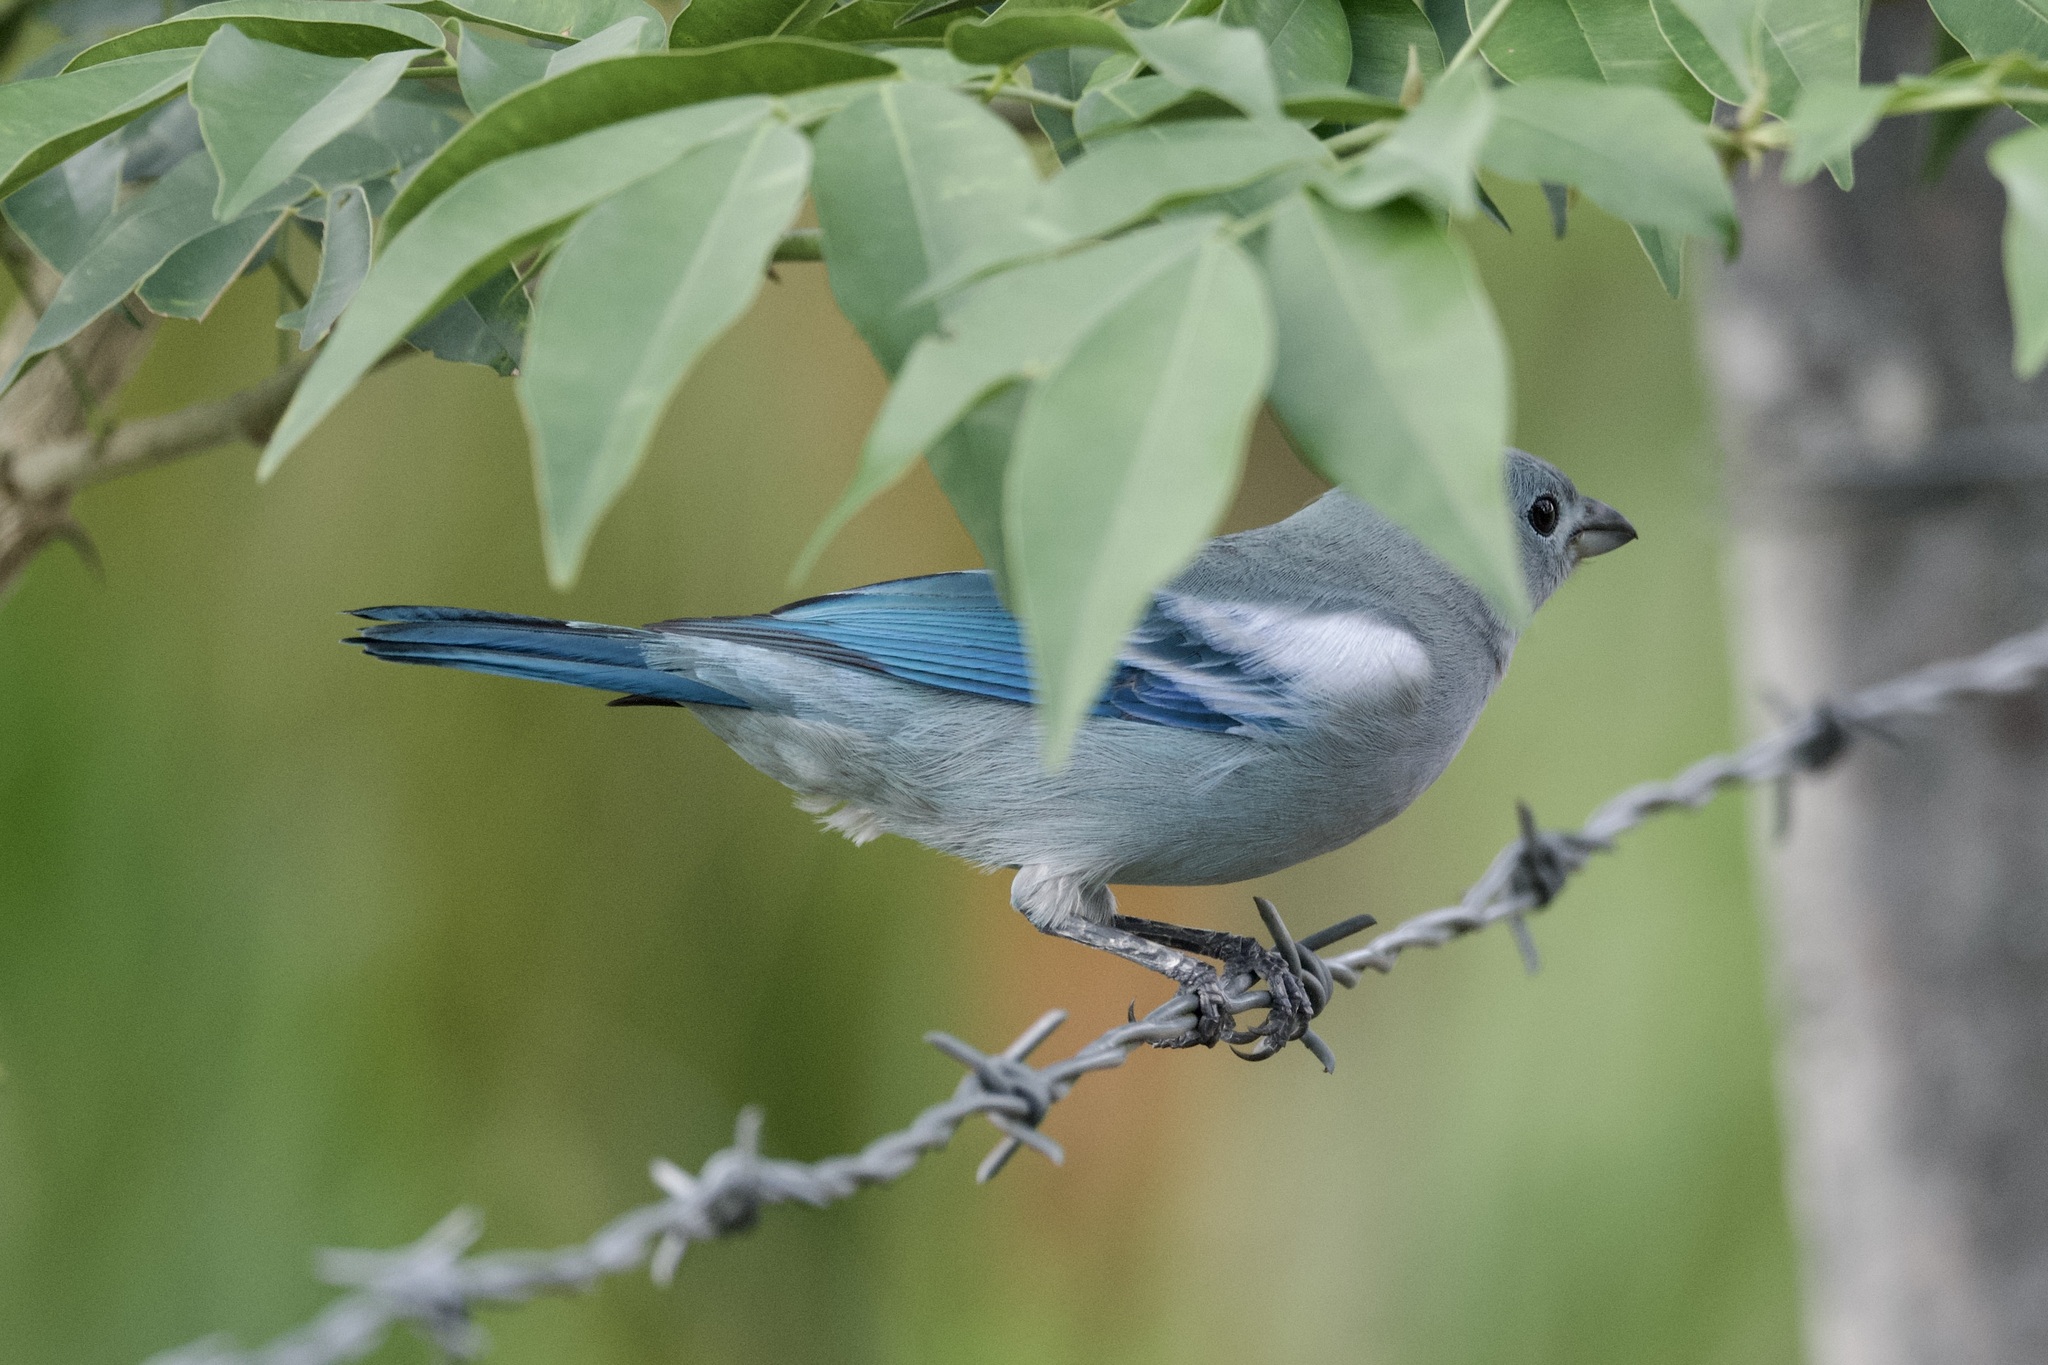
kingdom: Animalia
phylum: Chordata
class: Aves
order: Passeriformes
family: Thraupidae
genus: Thraupis
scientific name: Thraupis episcopus
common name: Blue-grey tanager
